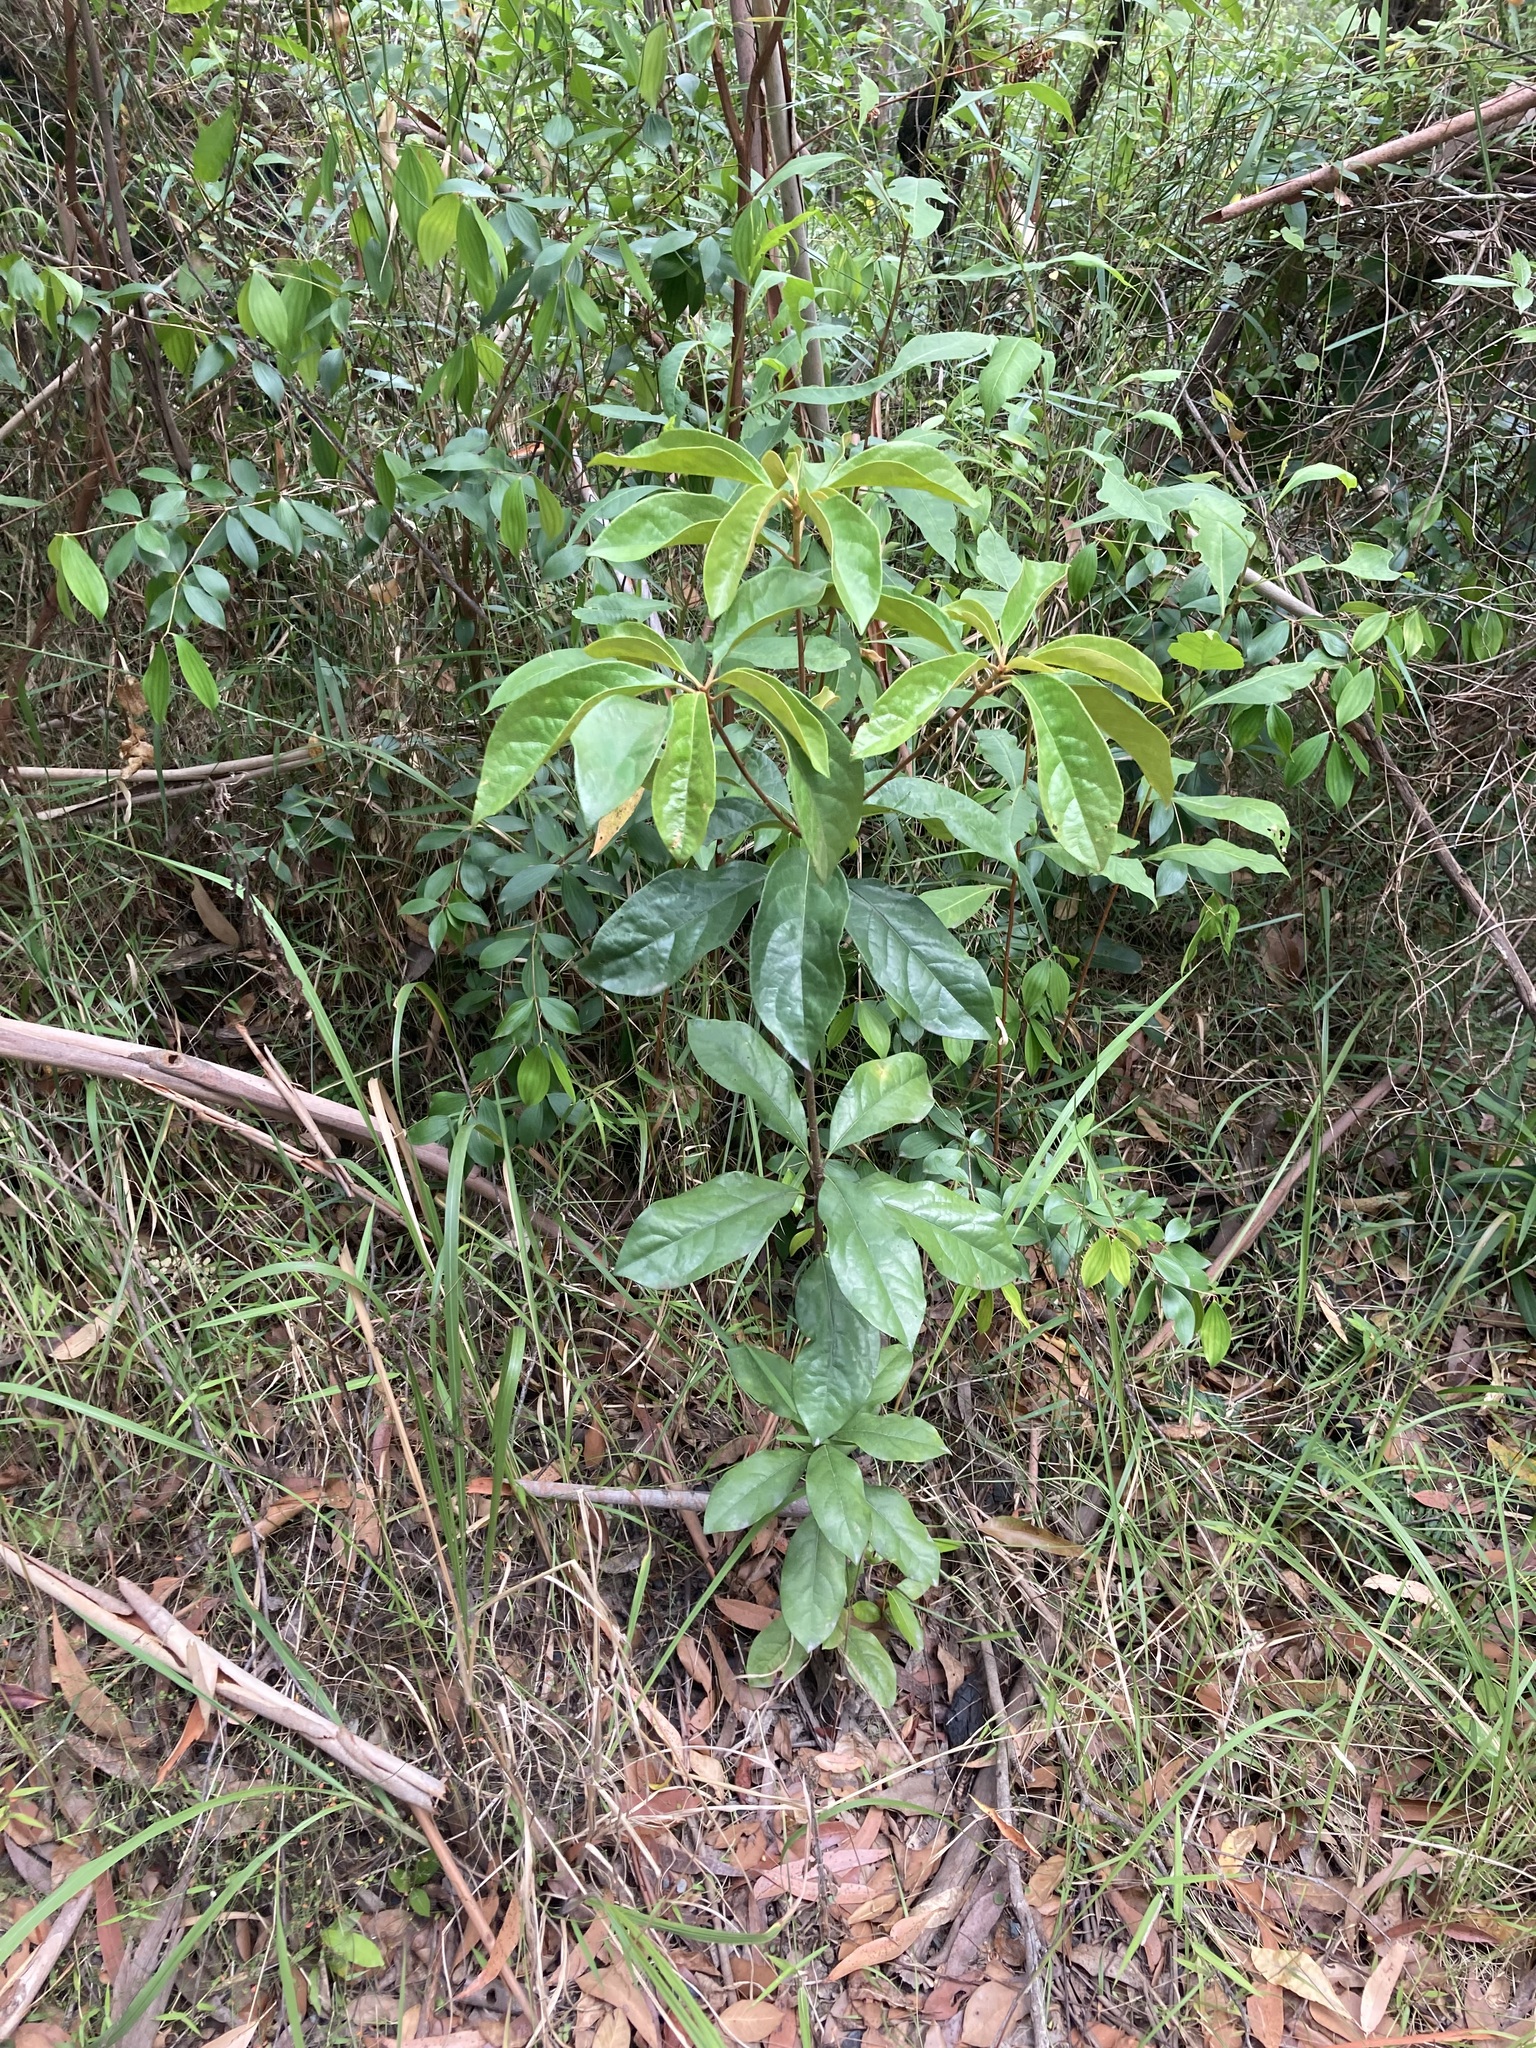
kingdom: Plantae
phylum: Tracheophyta
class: Magnoliopsida
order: Apiales
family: Pittosporaceae
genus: Pittosporum
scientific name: Pittosporum revolutum
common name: Brisbane-laurel
